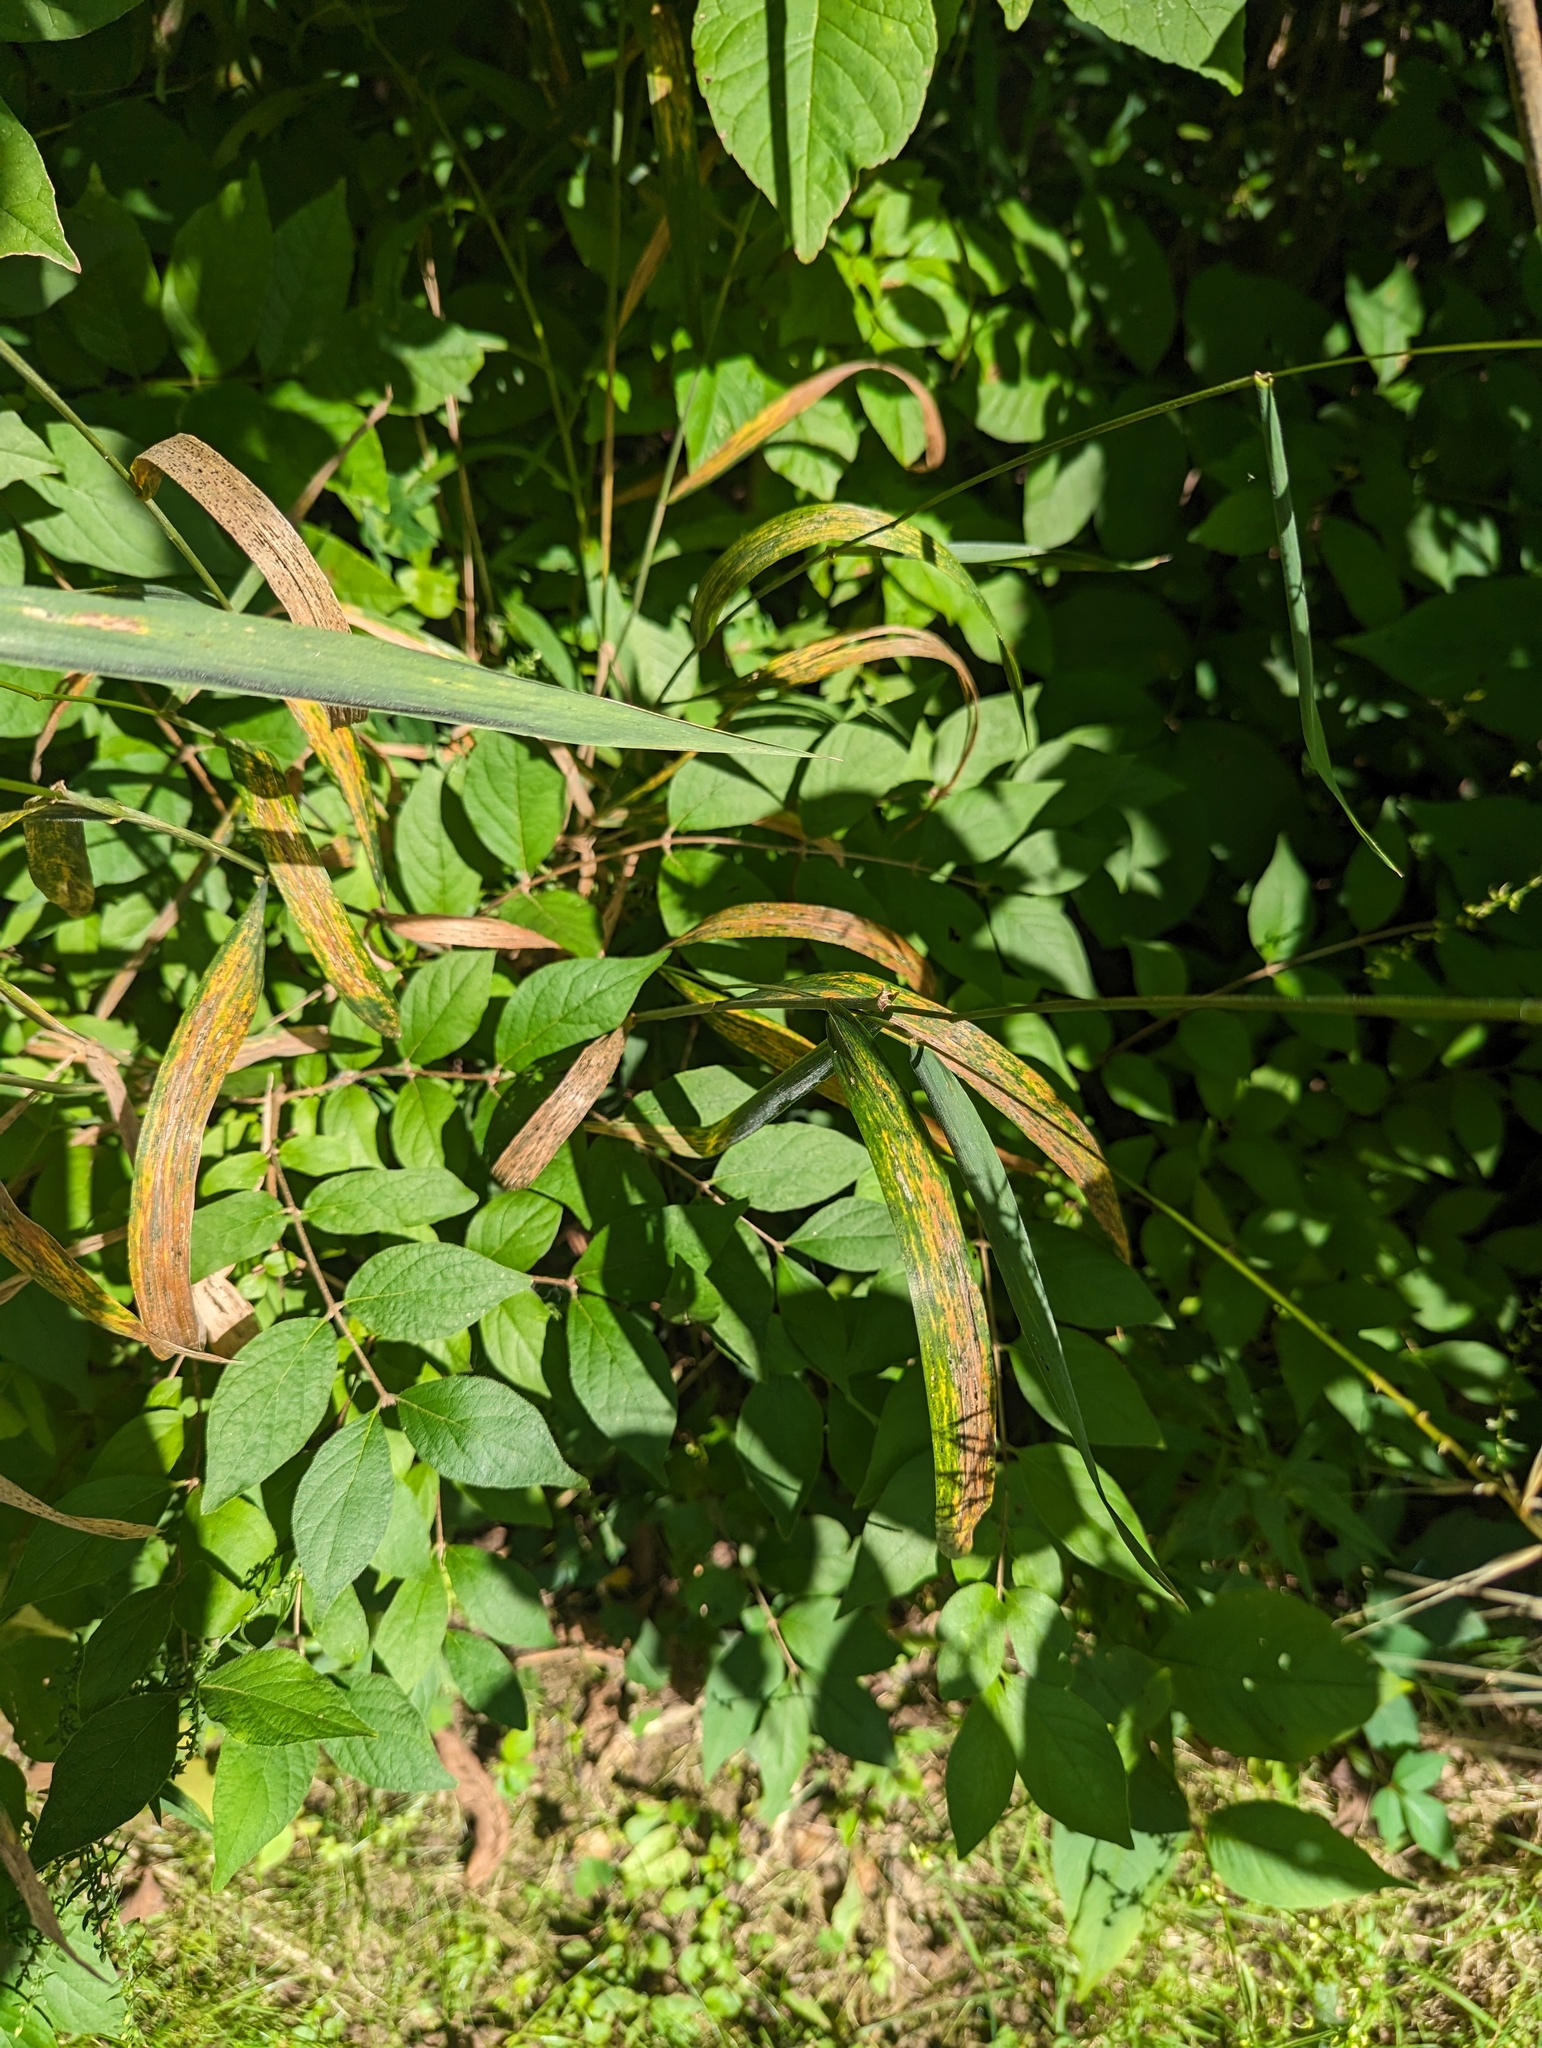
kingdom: Plantae
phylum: Tracheophyta
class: Liliopsida
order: Poales
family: Poaceae
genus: Elymus
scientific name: Elymus hystrix
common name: Bottlebrush grass
